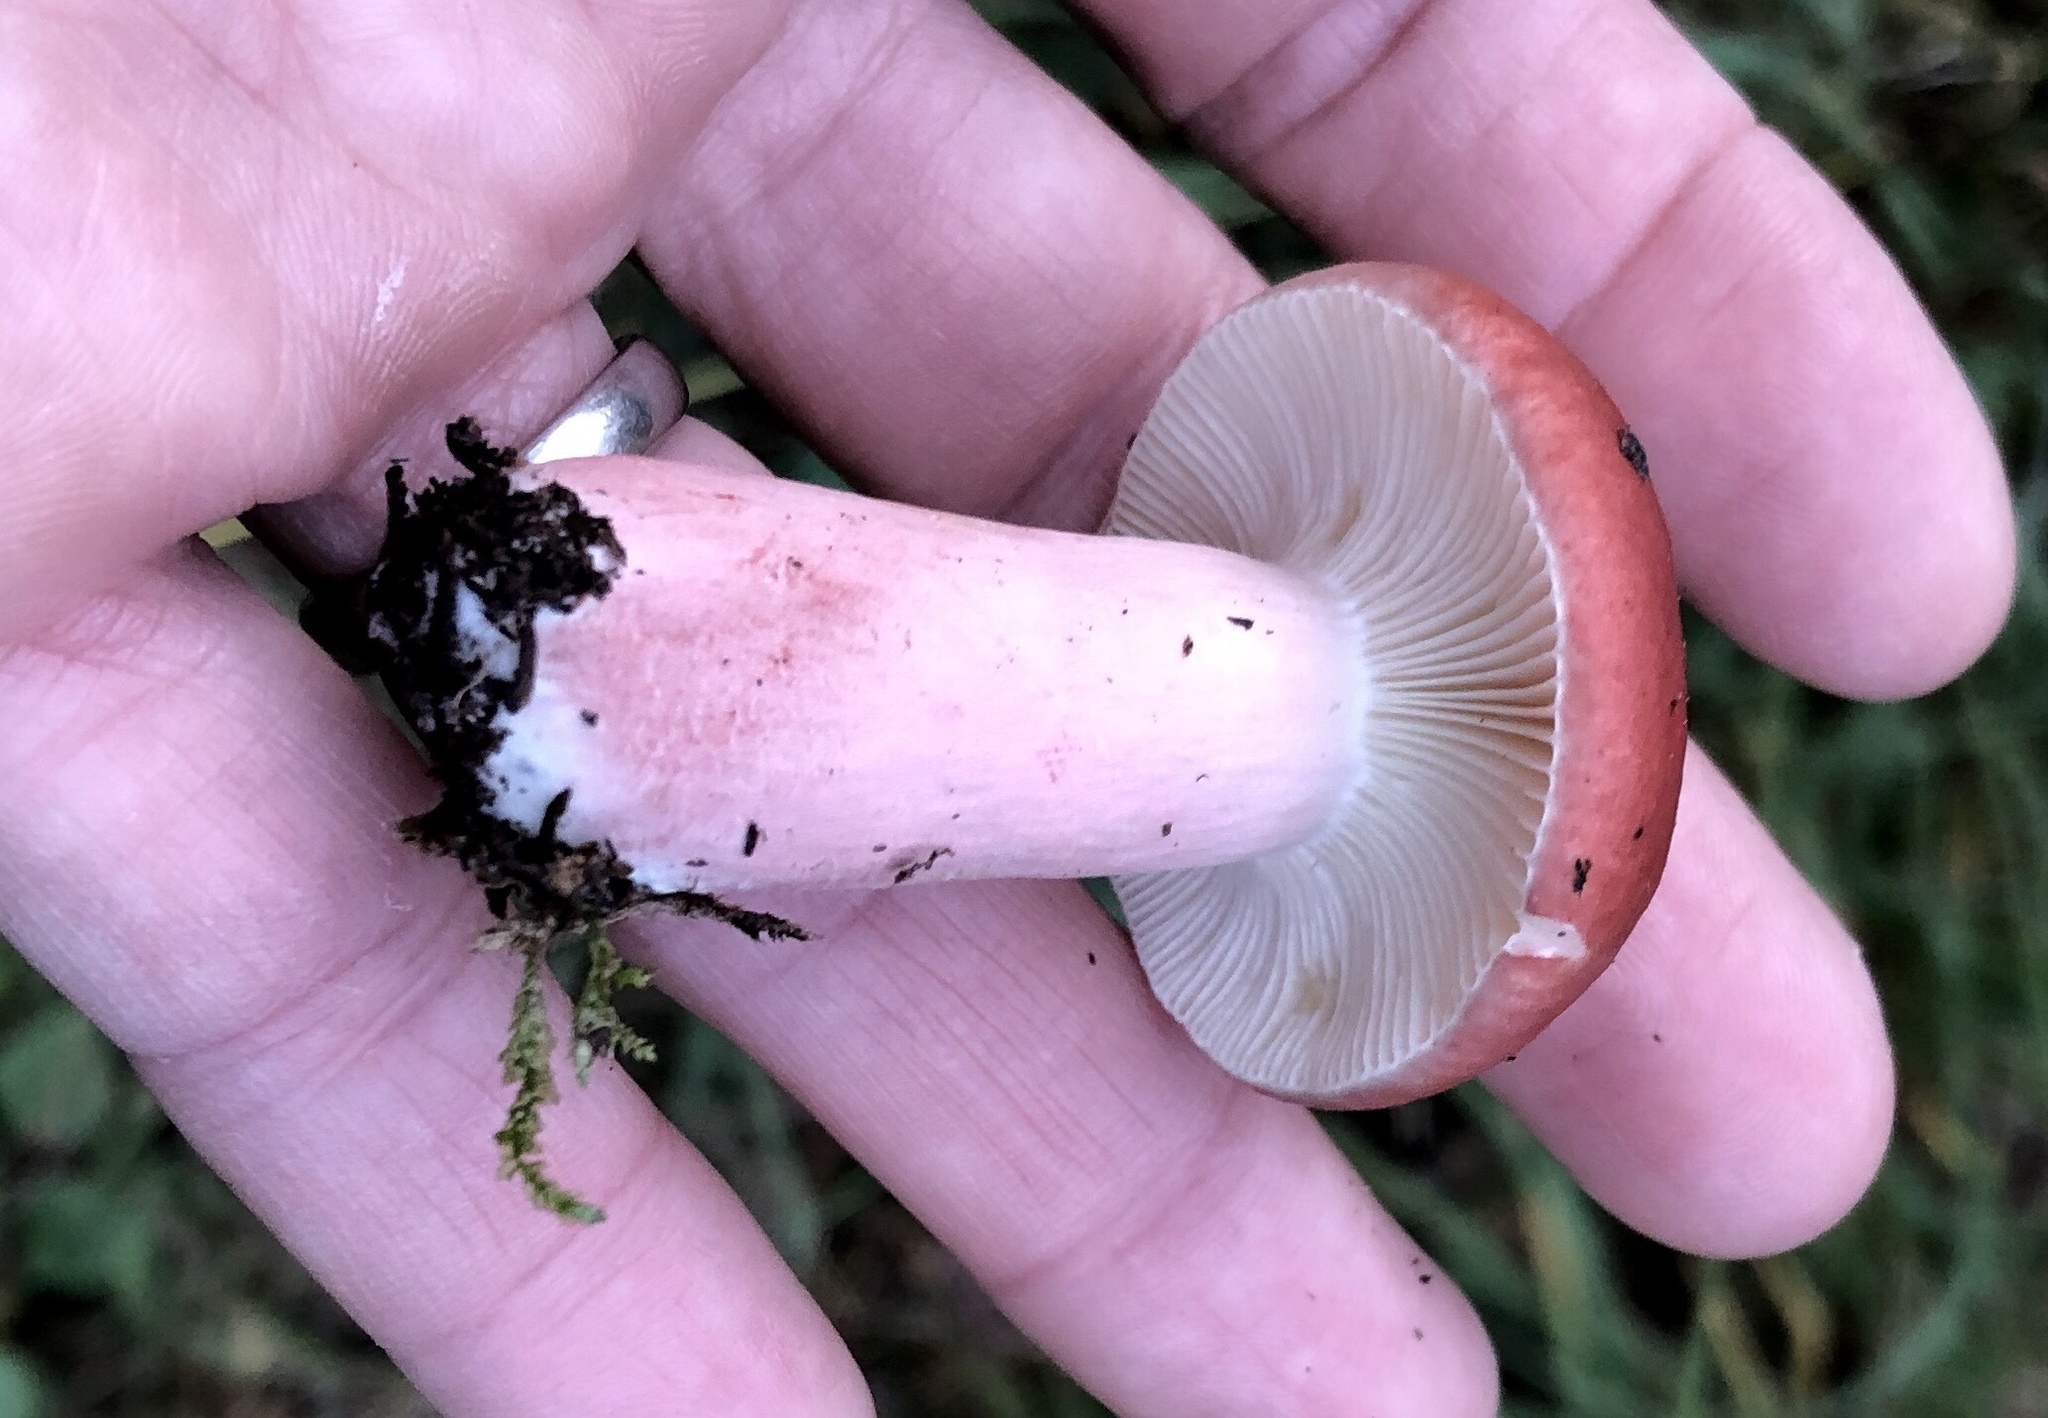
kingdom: Fungi
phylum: Basidiomycota
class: Agaricomycetes
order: Russulales
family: Russulaceae
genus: Russula
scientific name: Russula sanguinea
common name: Bloody brittlegill
